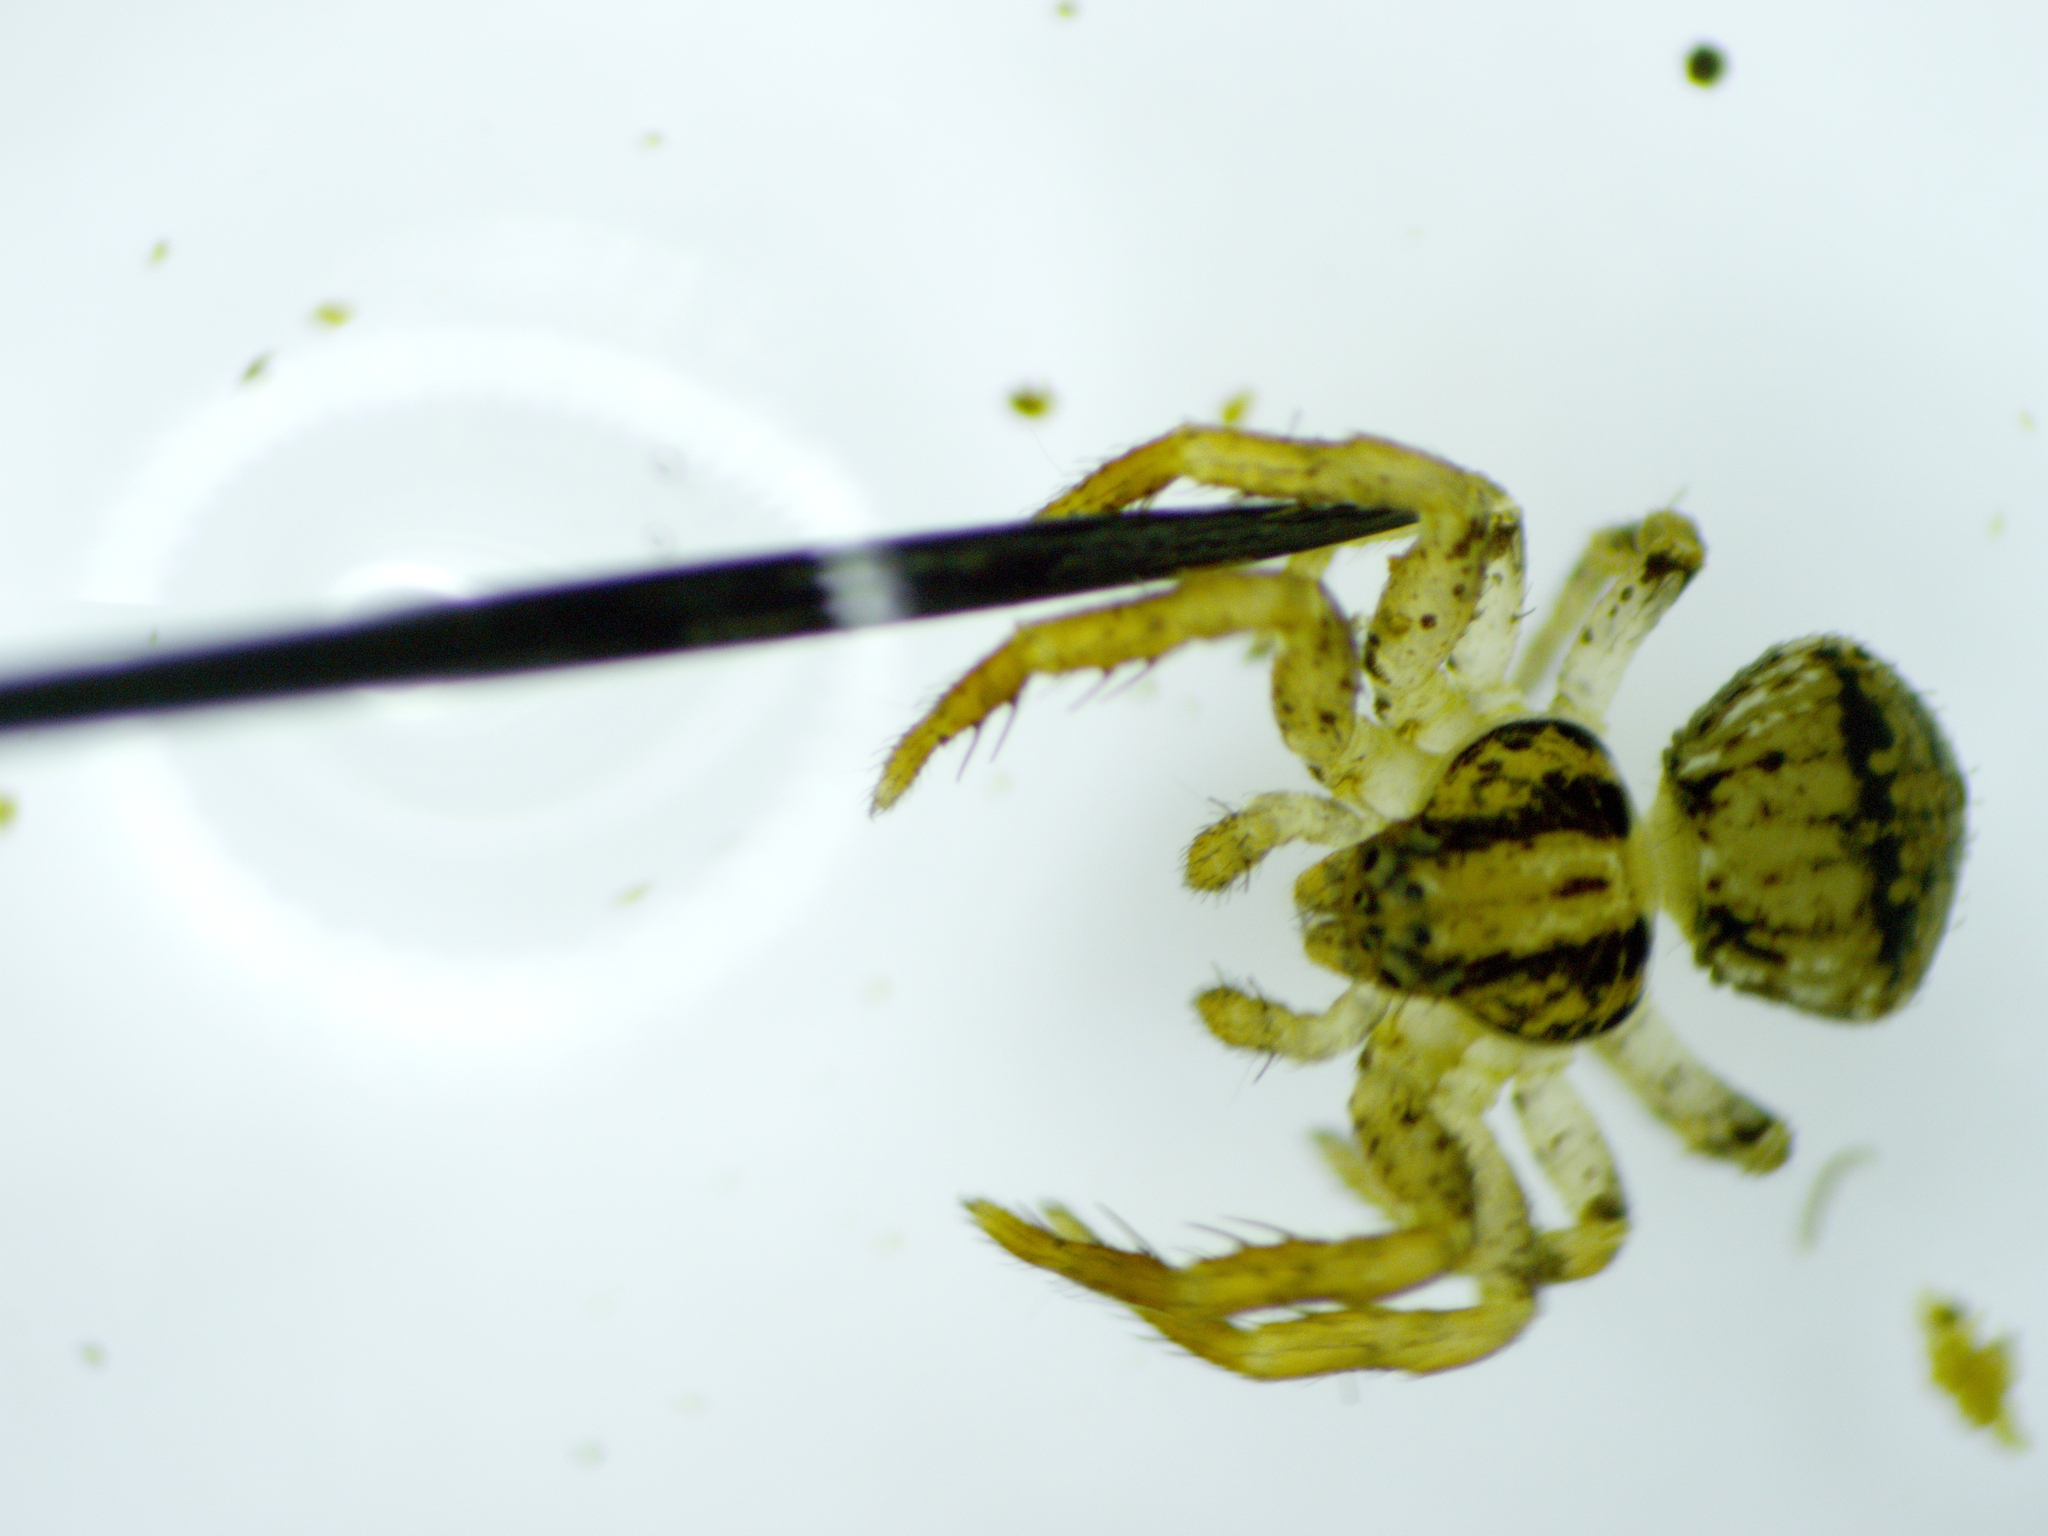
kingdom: Animalia
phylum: Arthropoda
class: Arachnida
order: Araneae
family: Thomisidae
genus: Ozyptila
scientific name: Ozyptila pacifica
